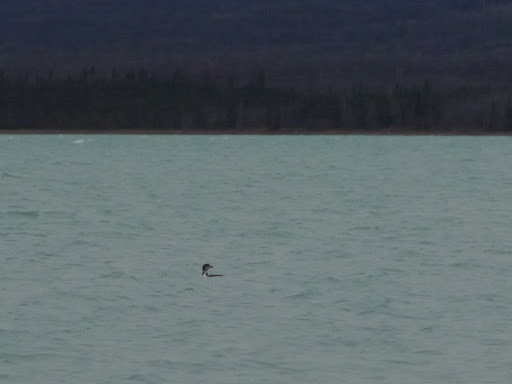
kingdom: Animalia
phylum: Chordata
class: Aves
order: Gaviiformes
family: Gaviidae
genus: Gavia
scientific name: Gavia immer
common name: Common loon
